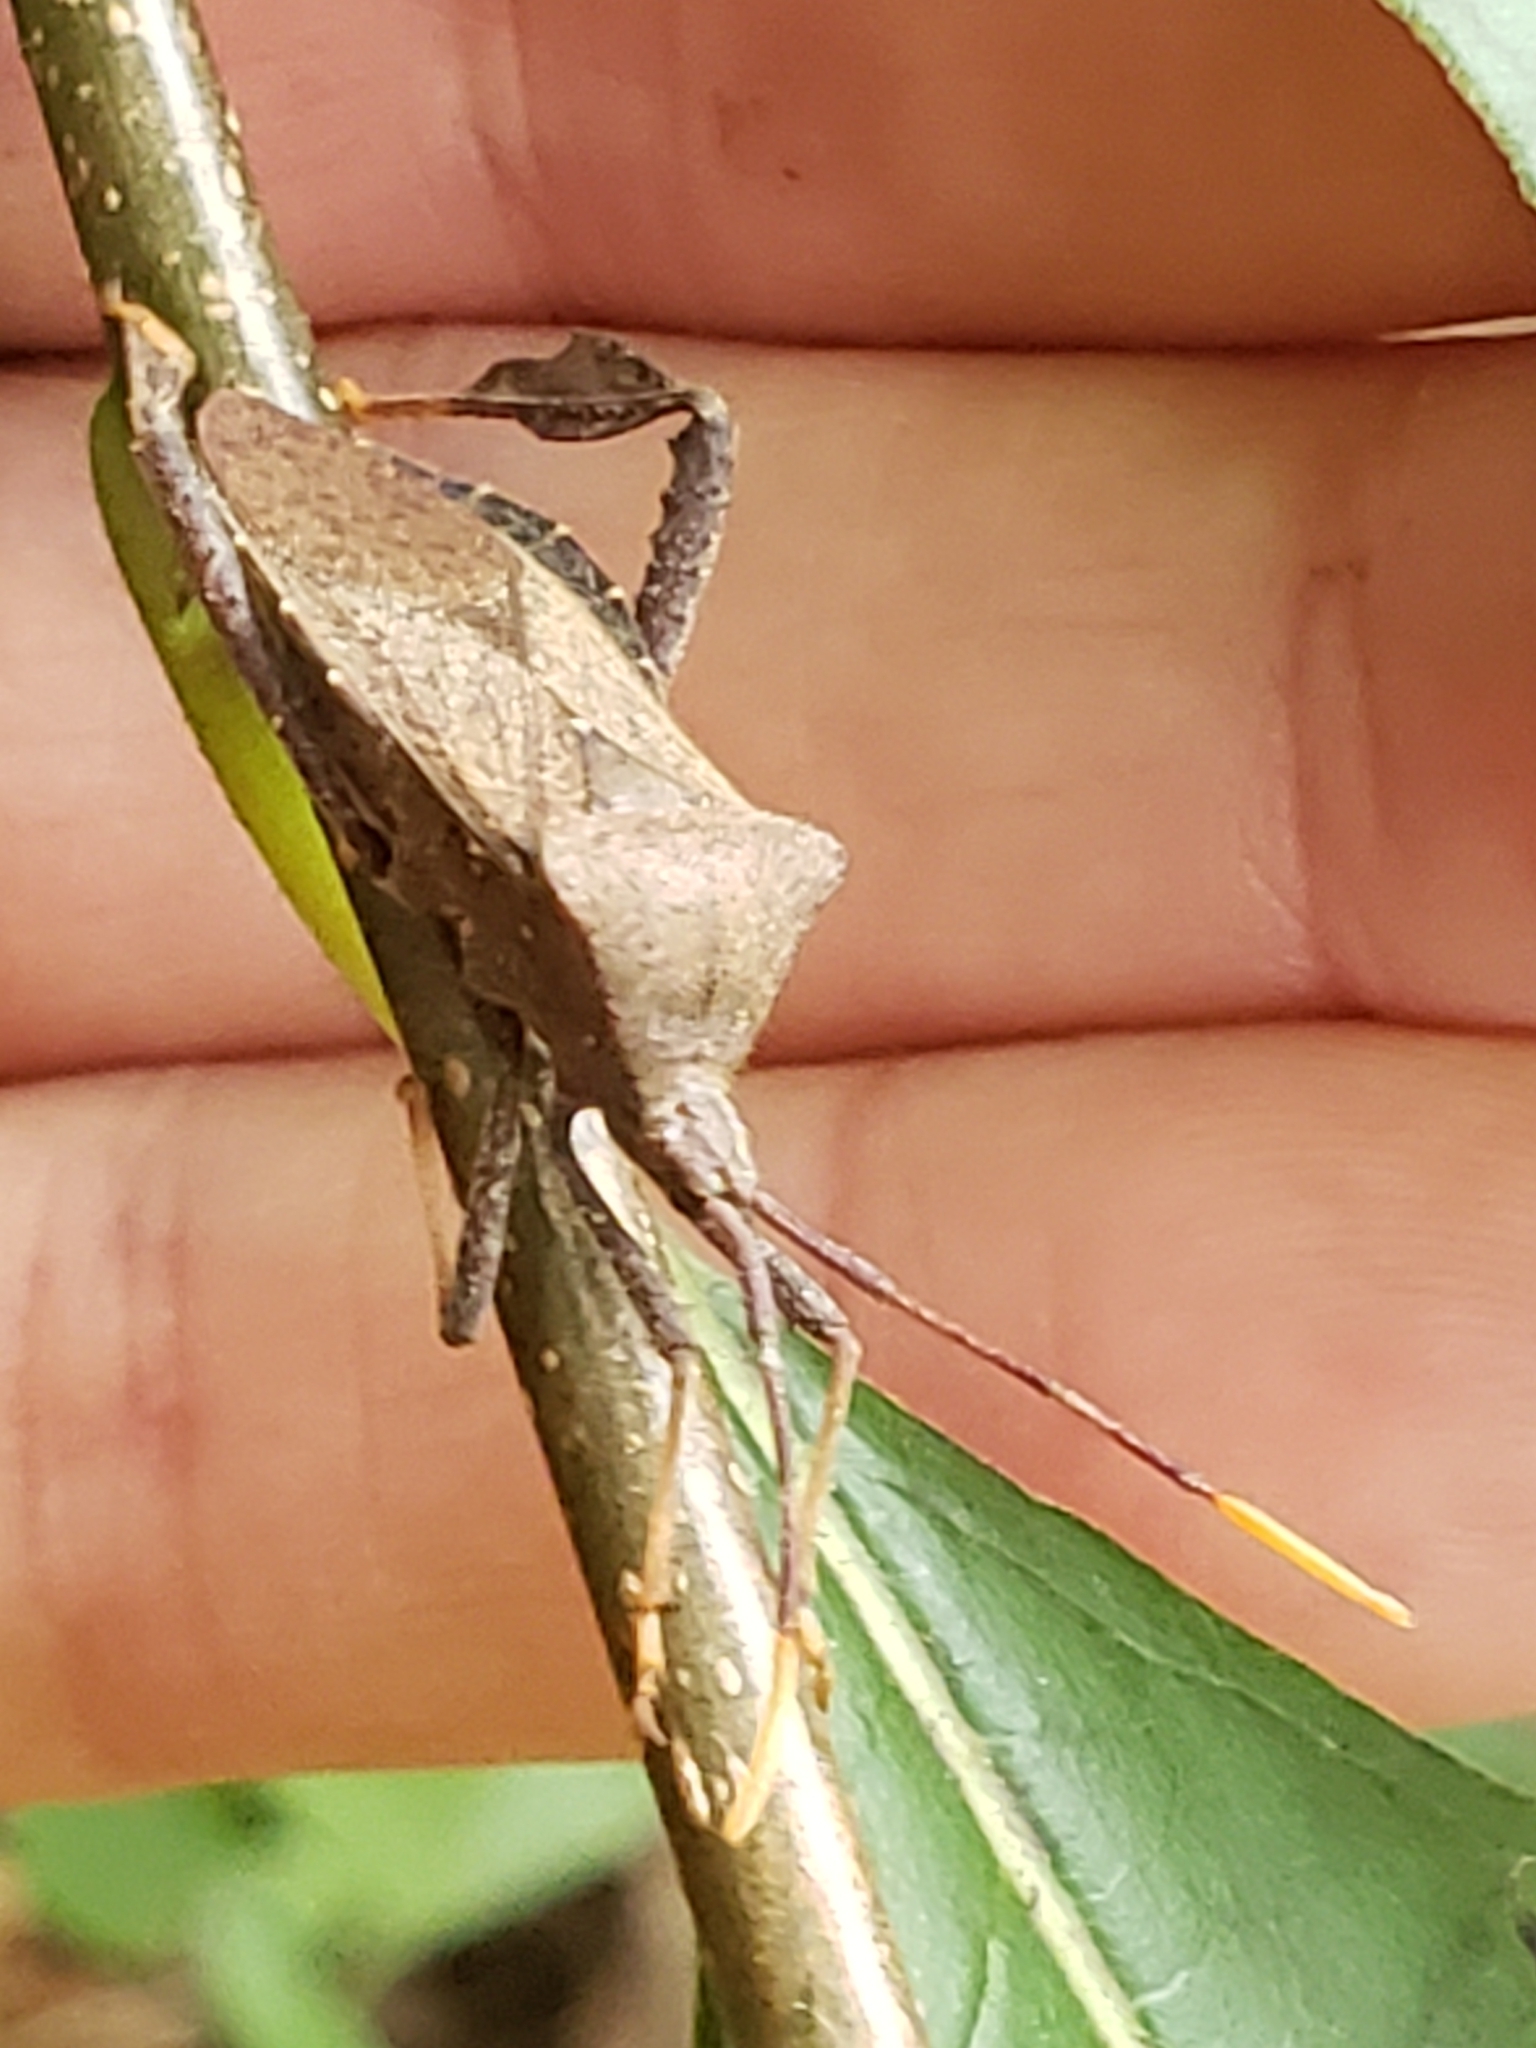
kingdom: Animalia
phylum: Arthropoda
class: Insecta
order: Hemiptera
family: Coreidae
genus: Acanthocephala
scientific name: Acanthocephala terminalis
